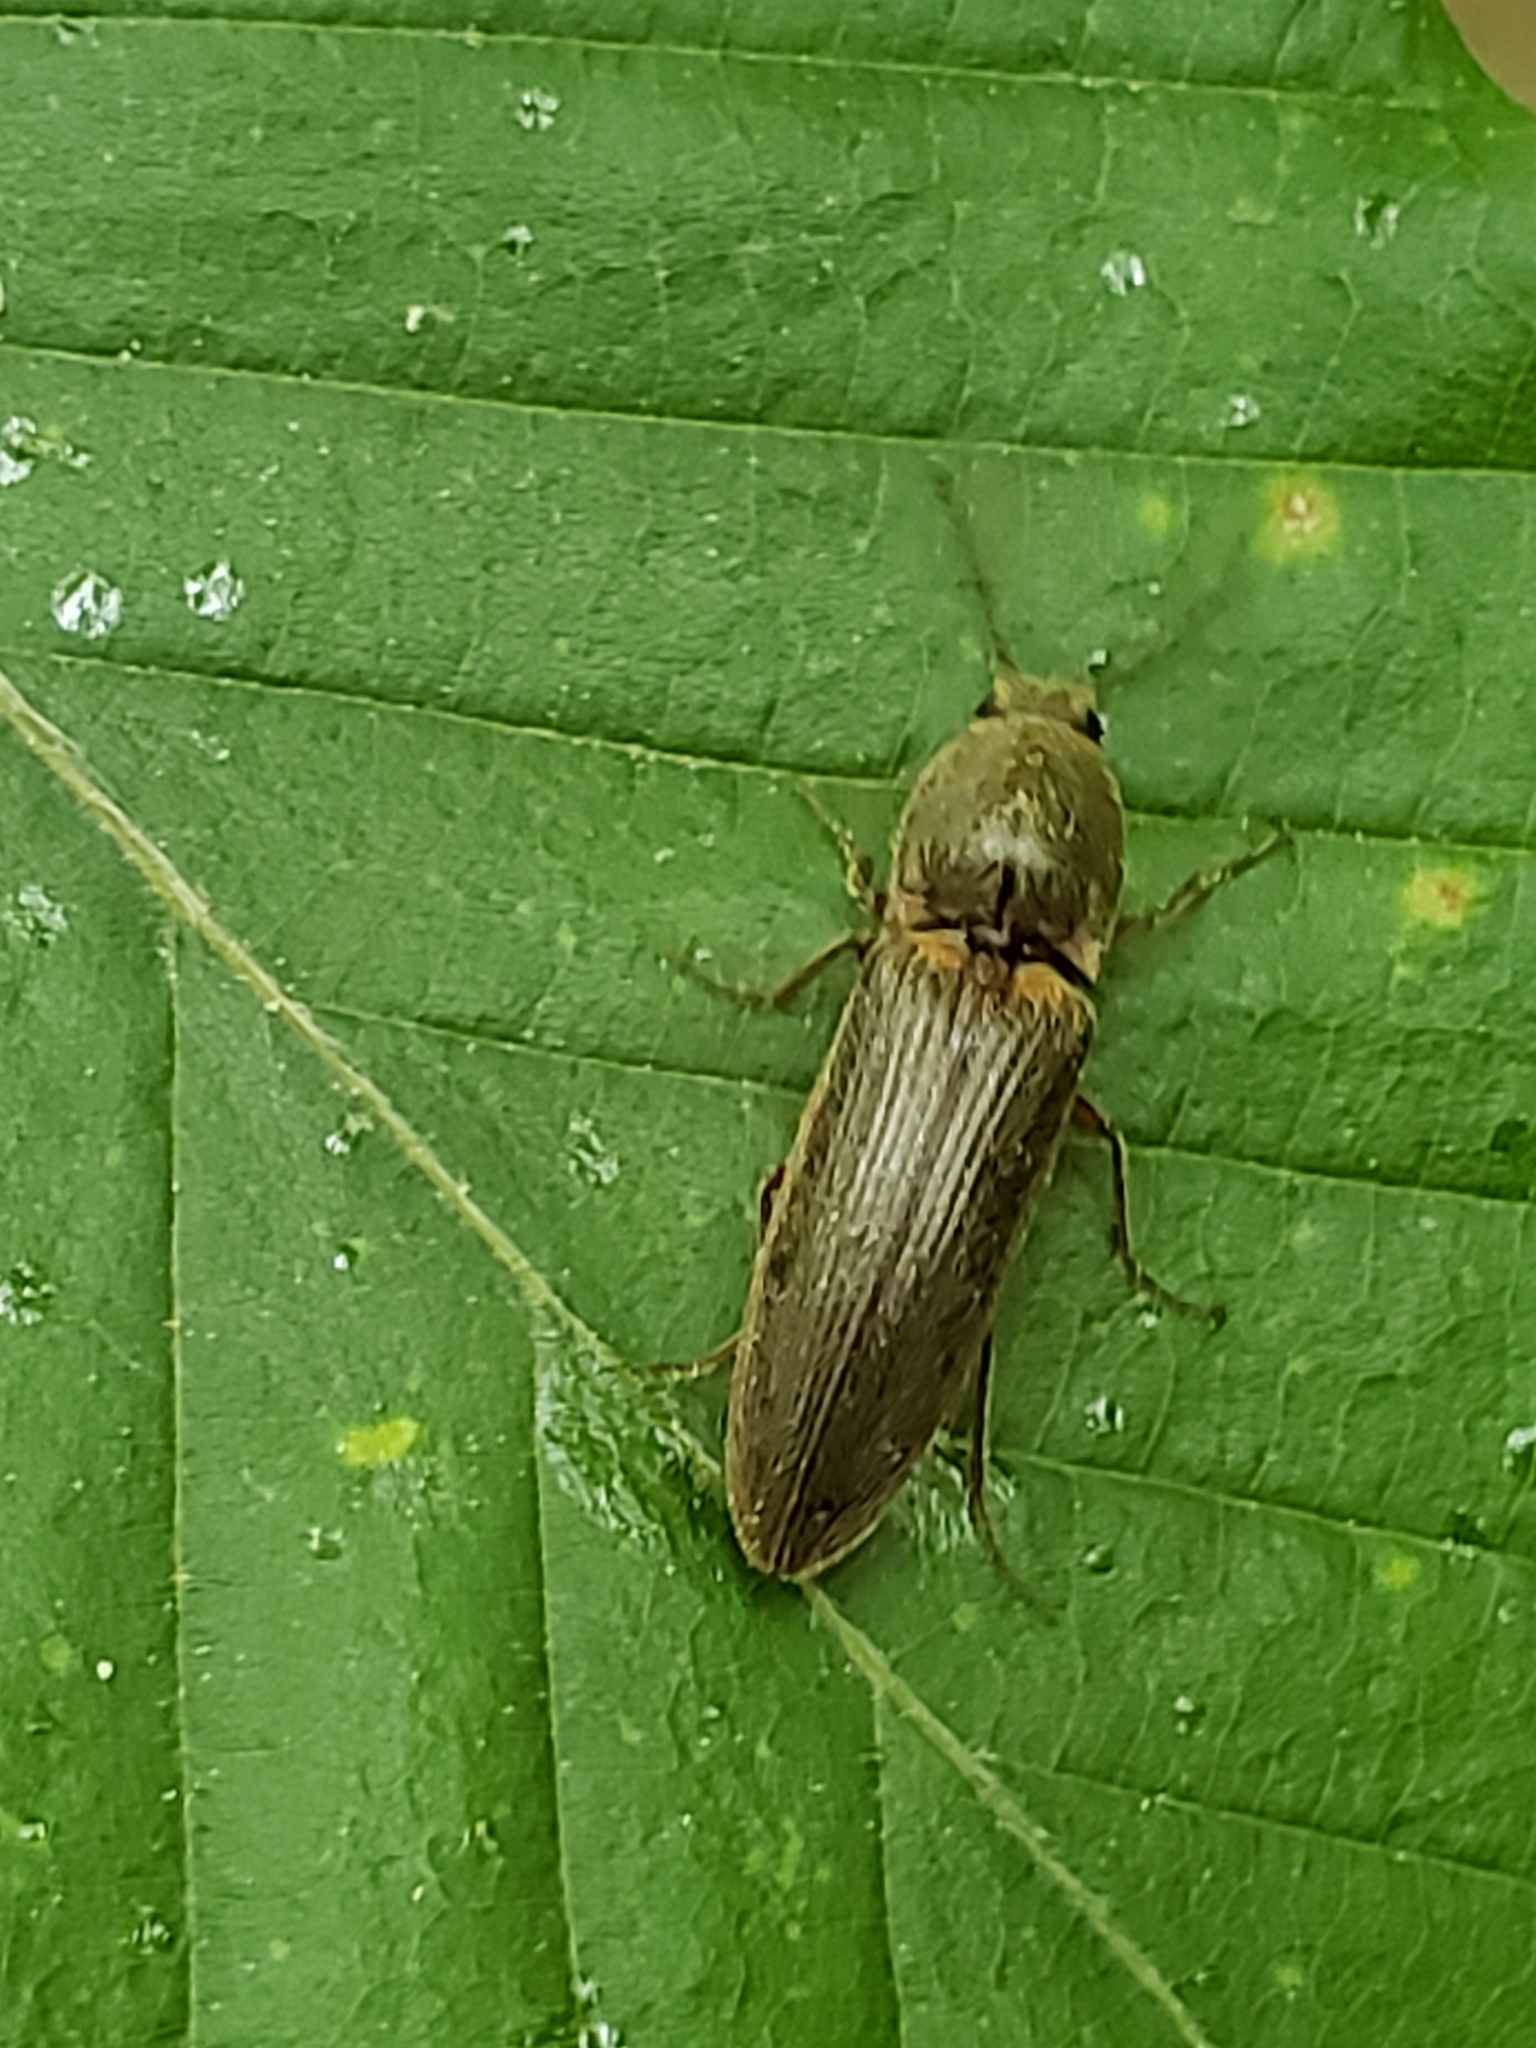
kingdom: Animalia
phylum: Arthropoda
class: Insecta
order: Coleoptera
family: Elateridae
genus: Gambrinus
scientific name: Gambrinus griseus
